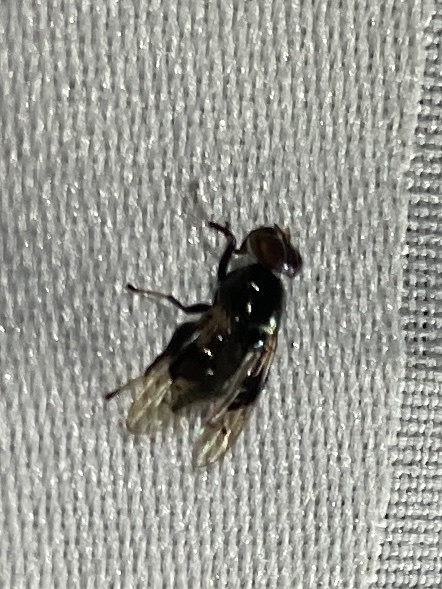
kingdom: Animalia
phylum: Arthropoda
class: Insecta
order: Diptera
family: Platystomatidae
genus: Pseudorichardia
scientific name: Pseudorichardia flavitarsis
